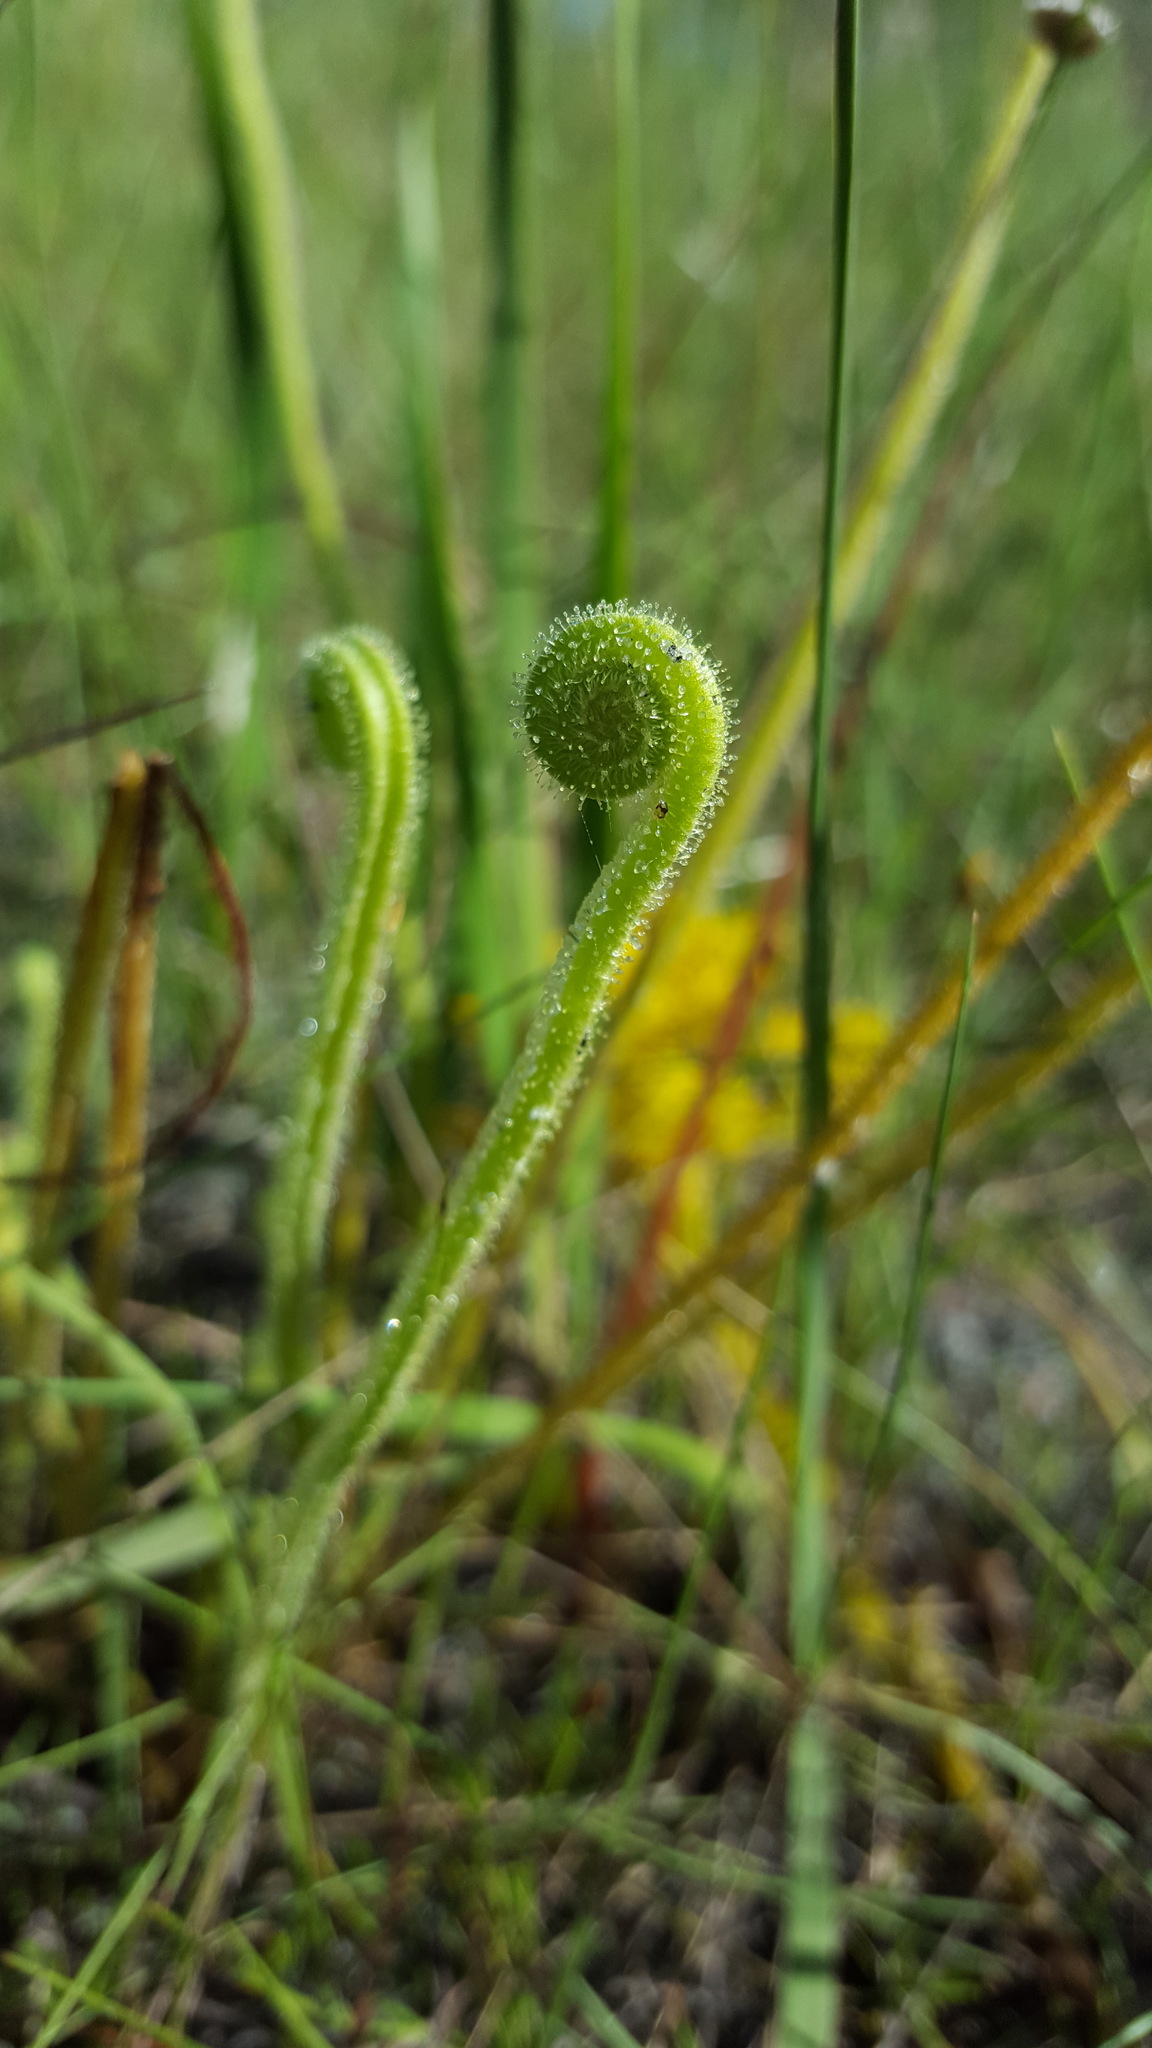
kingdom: Plantae
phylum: Tracheophyta
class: Magnoliopsida
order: Caryophyllales
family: Droseraceae
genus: Drosera
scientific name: Drosera filiformis
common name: Dew-thread
